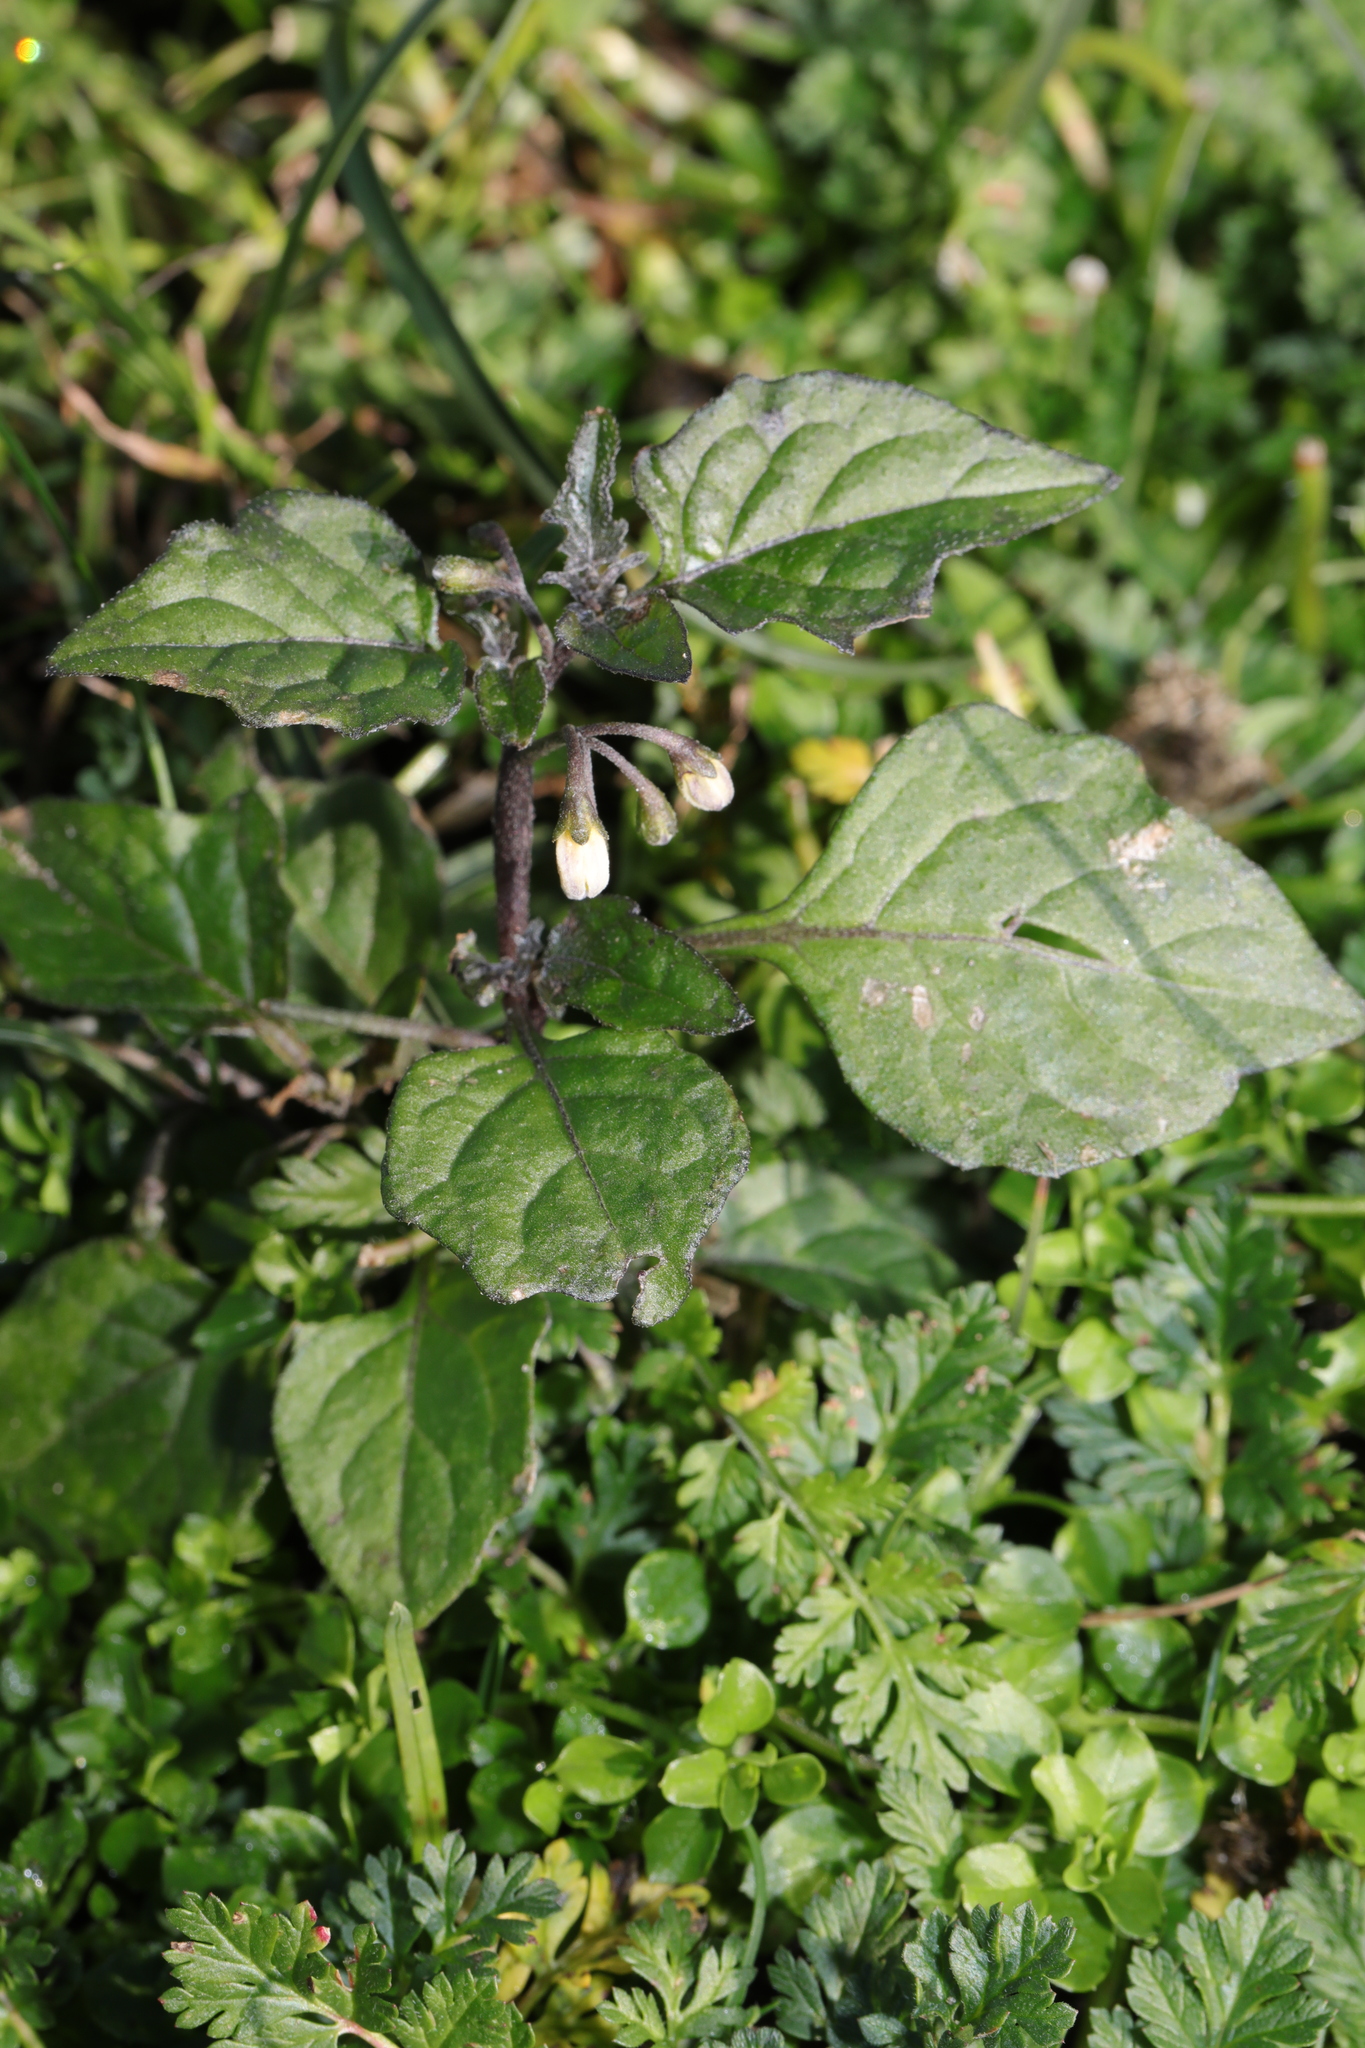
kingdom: Plantae
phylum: Tracheophyta
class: Magnoliopsida
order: Solanales
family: Solanaceae
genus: Solanum
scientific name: Solanum nigrum
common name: Black nightshade
